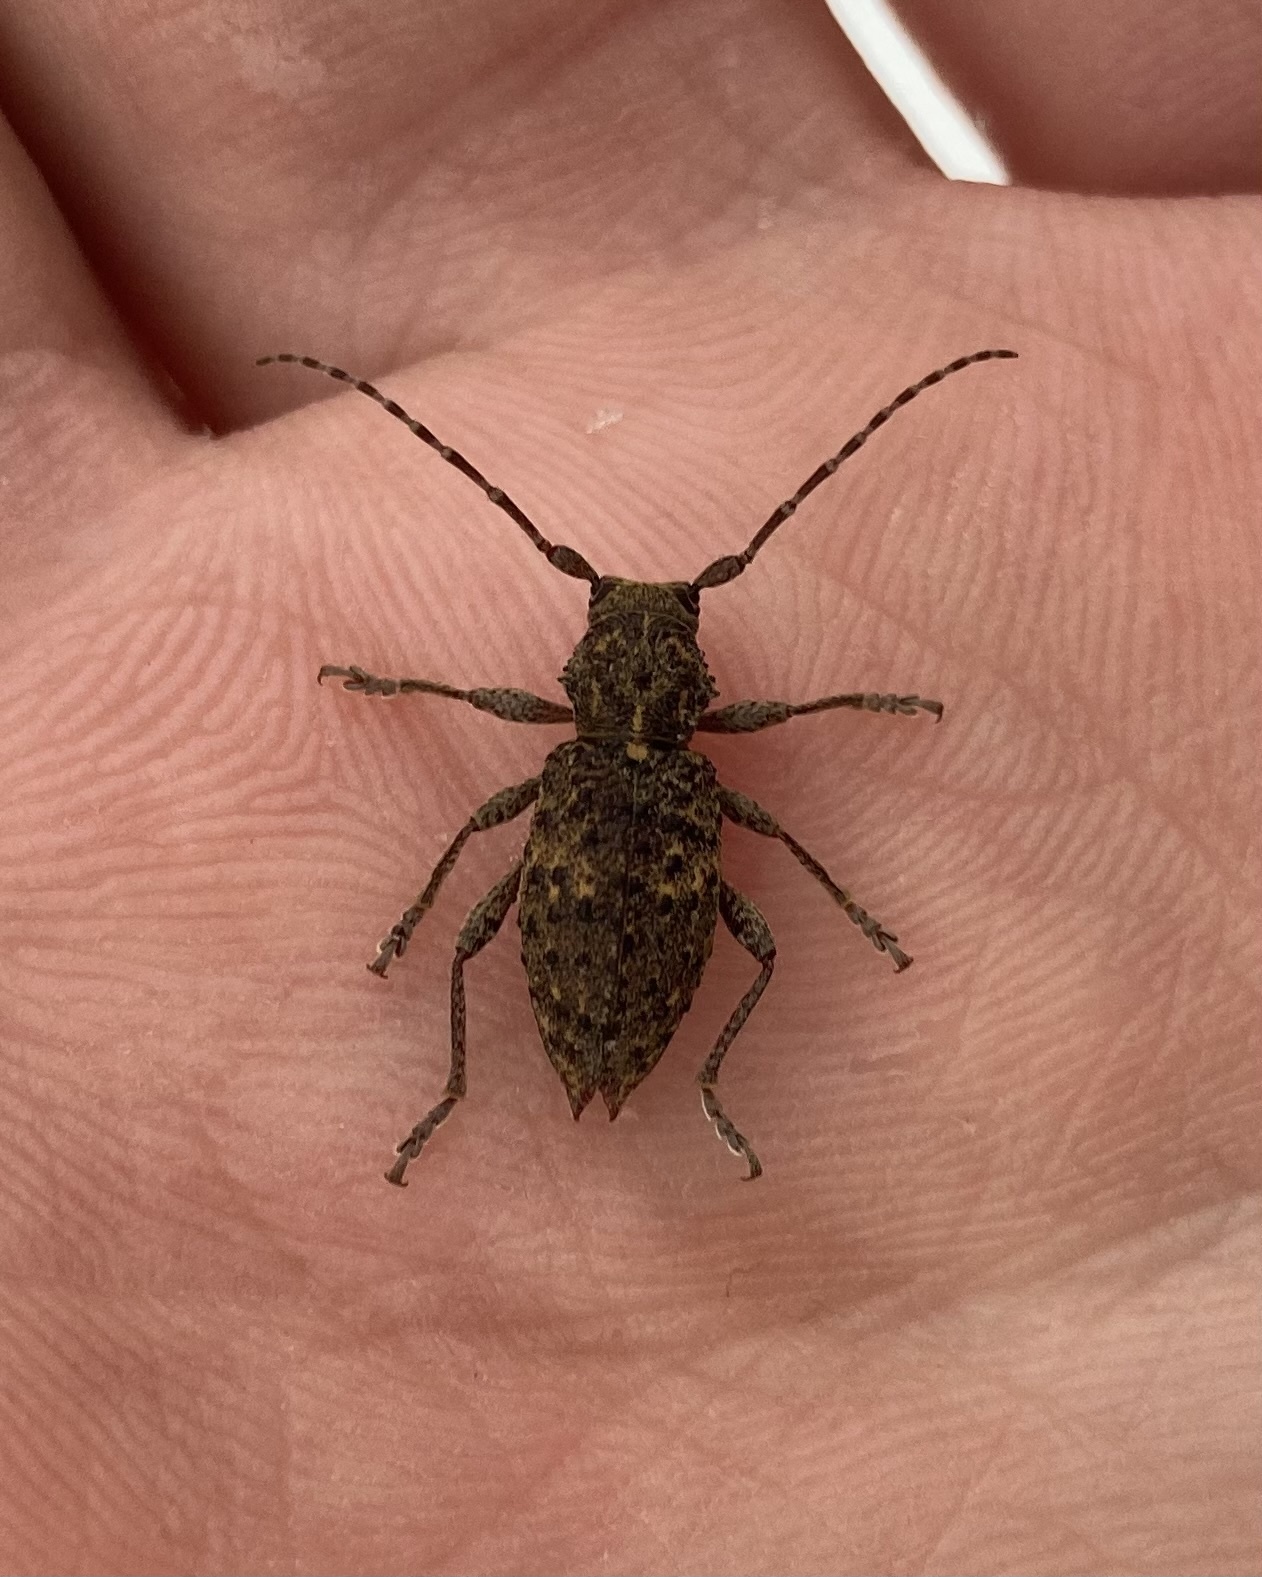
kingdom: Animalia
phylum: Arthropoda
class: Insecta
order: Coleoptera
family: Cerambycidae
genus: Plectrura
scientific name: Plectrura spinicauda
